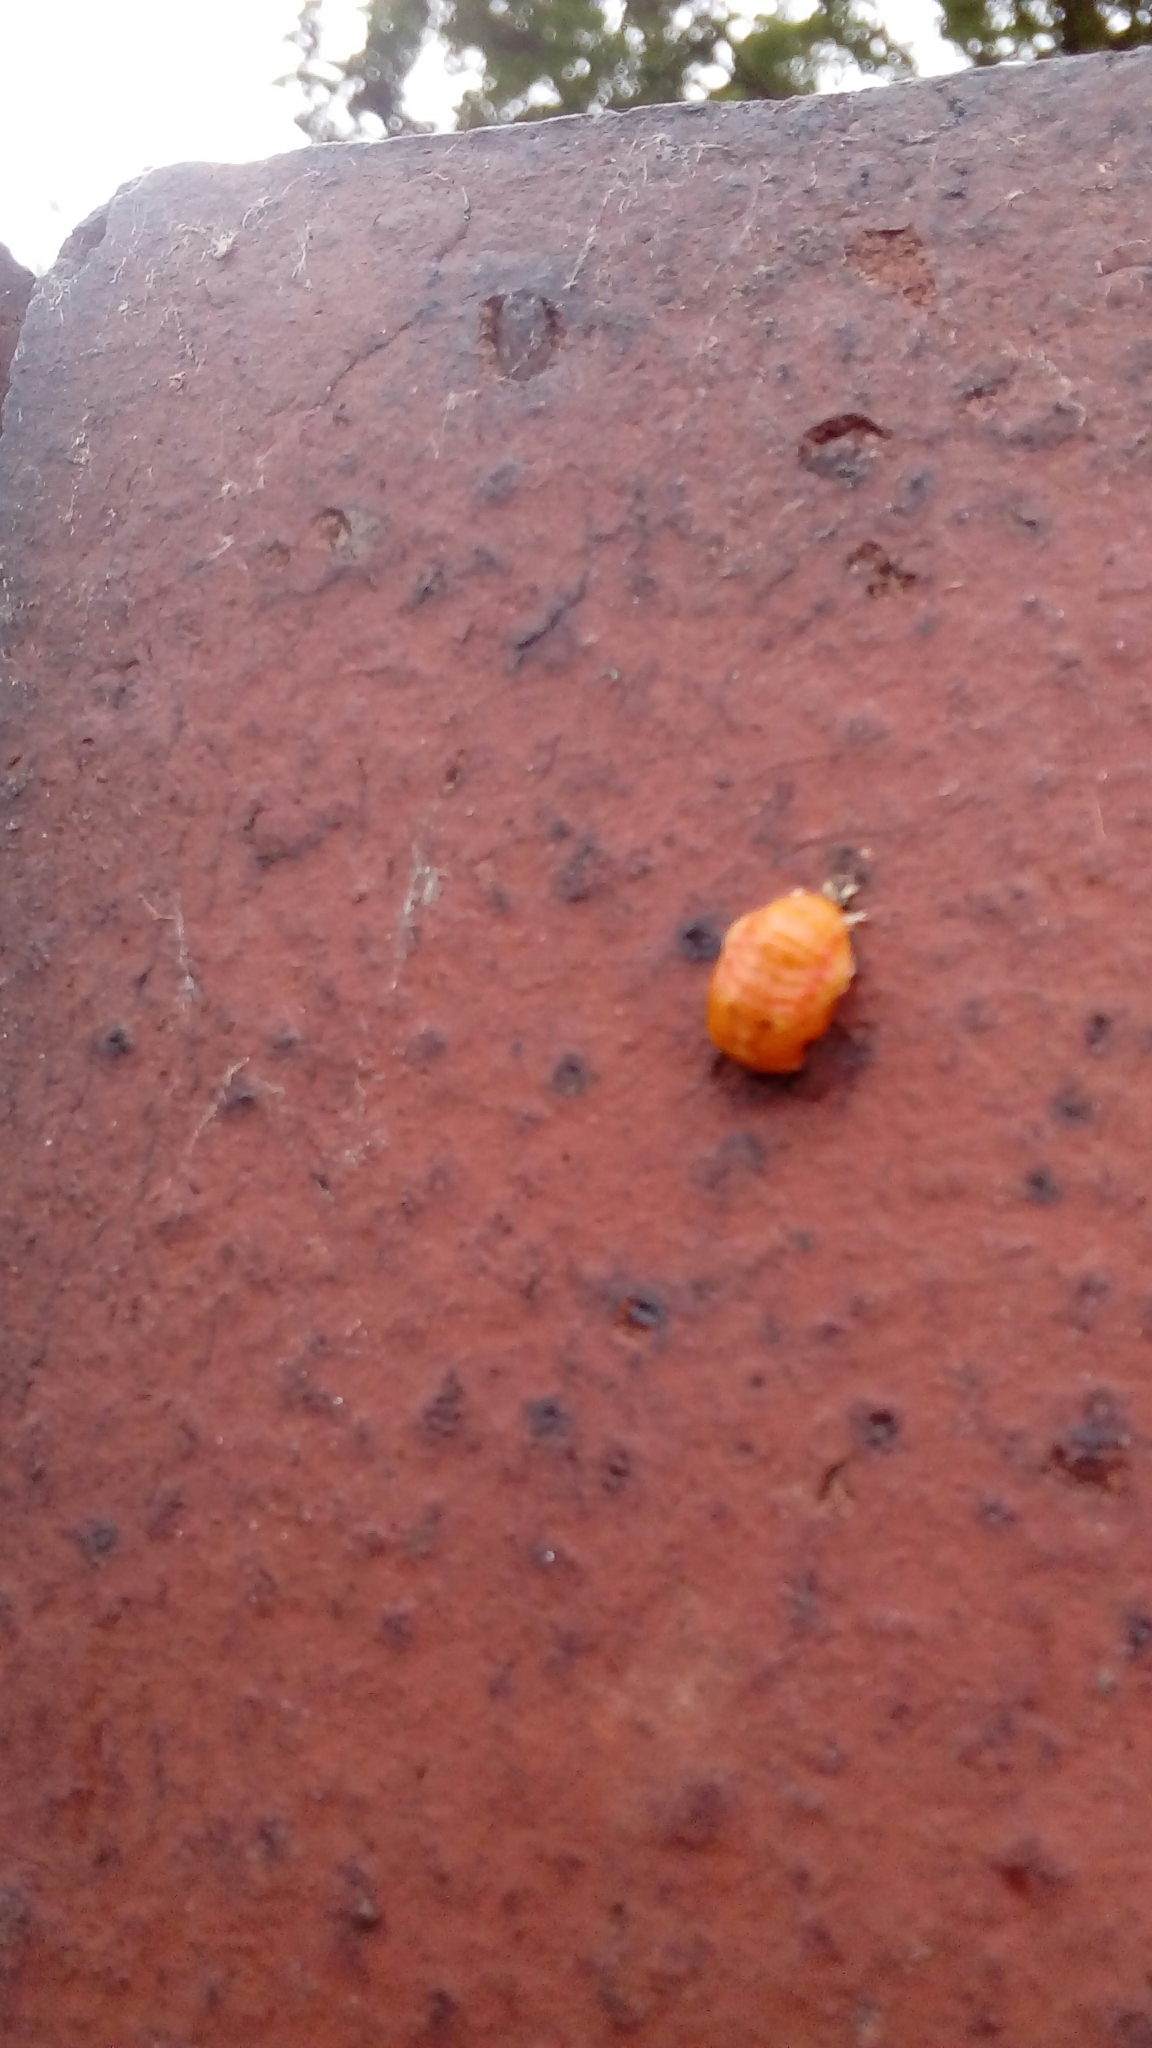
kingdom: Animalia
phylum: Arthropoda
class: Insecta
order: Coleoptera
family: Coccinellidae
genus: Harmonia
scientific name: Harmonia axyridis
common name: Harlequin ladybird
